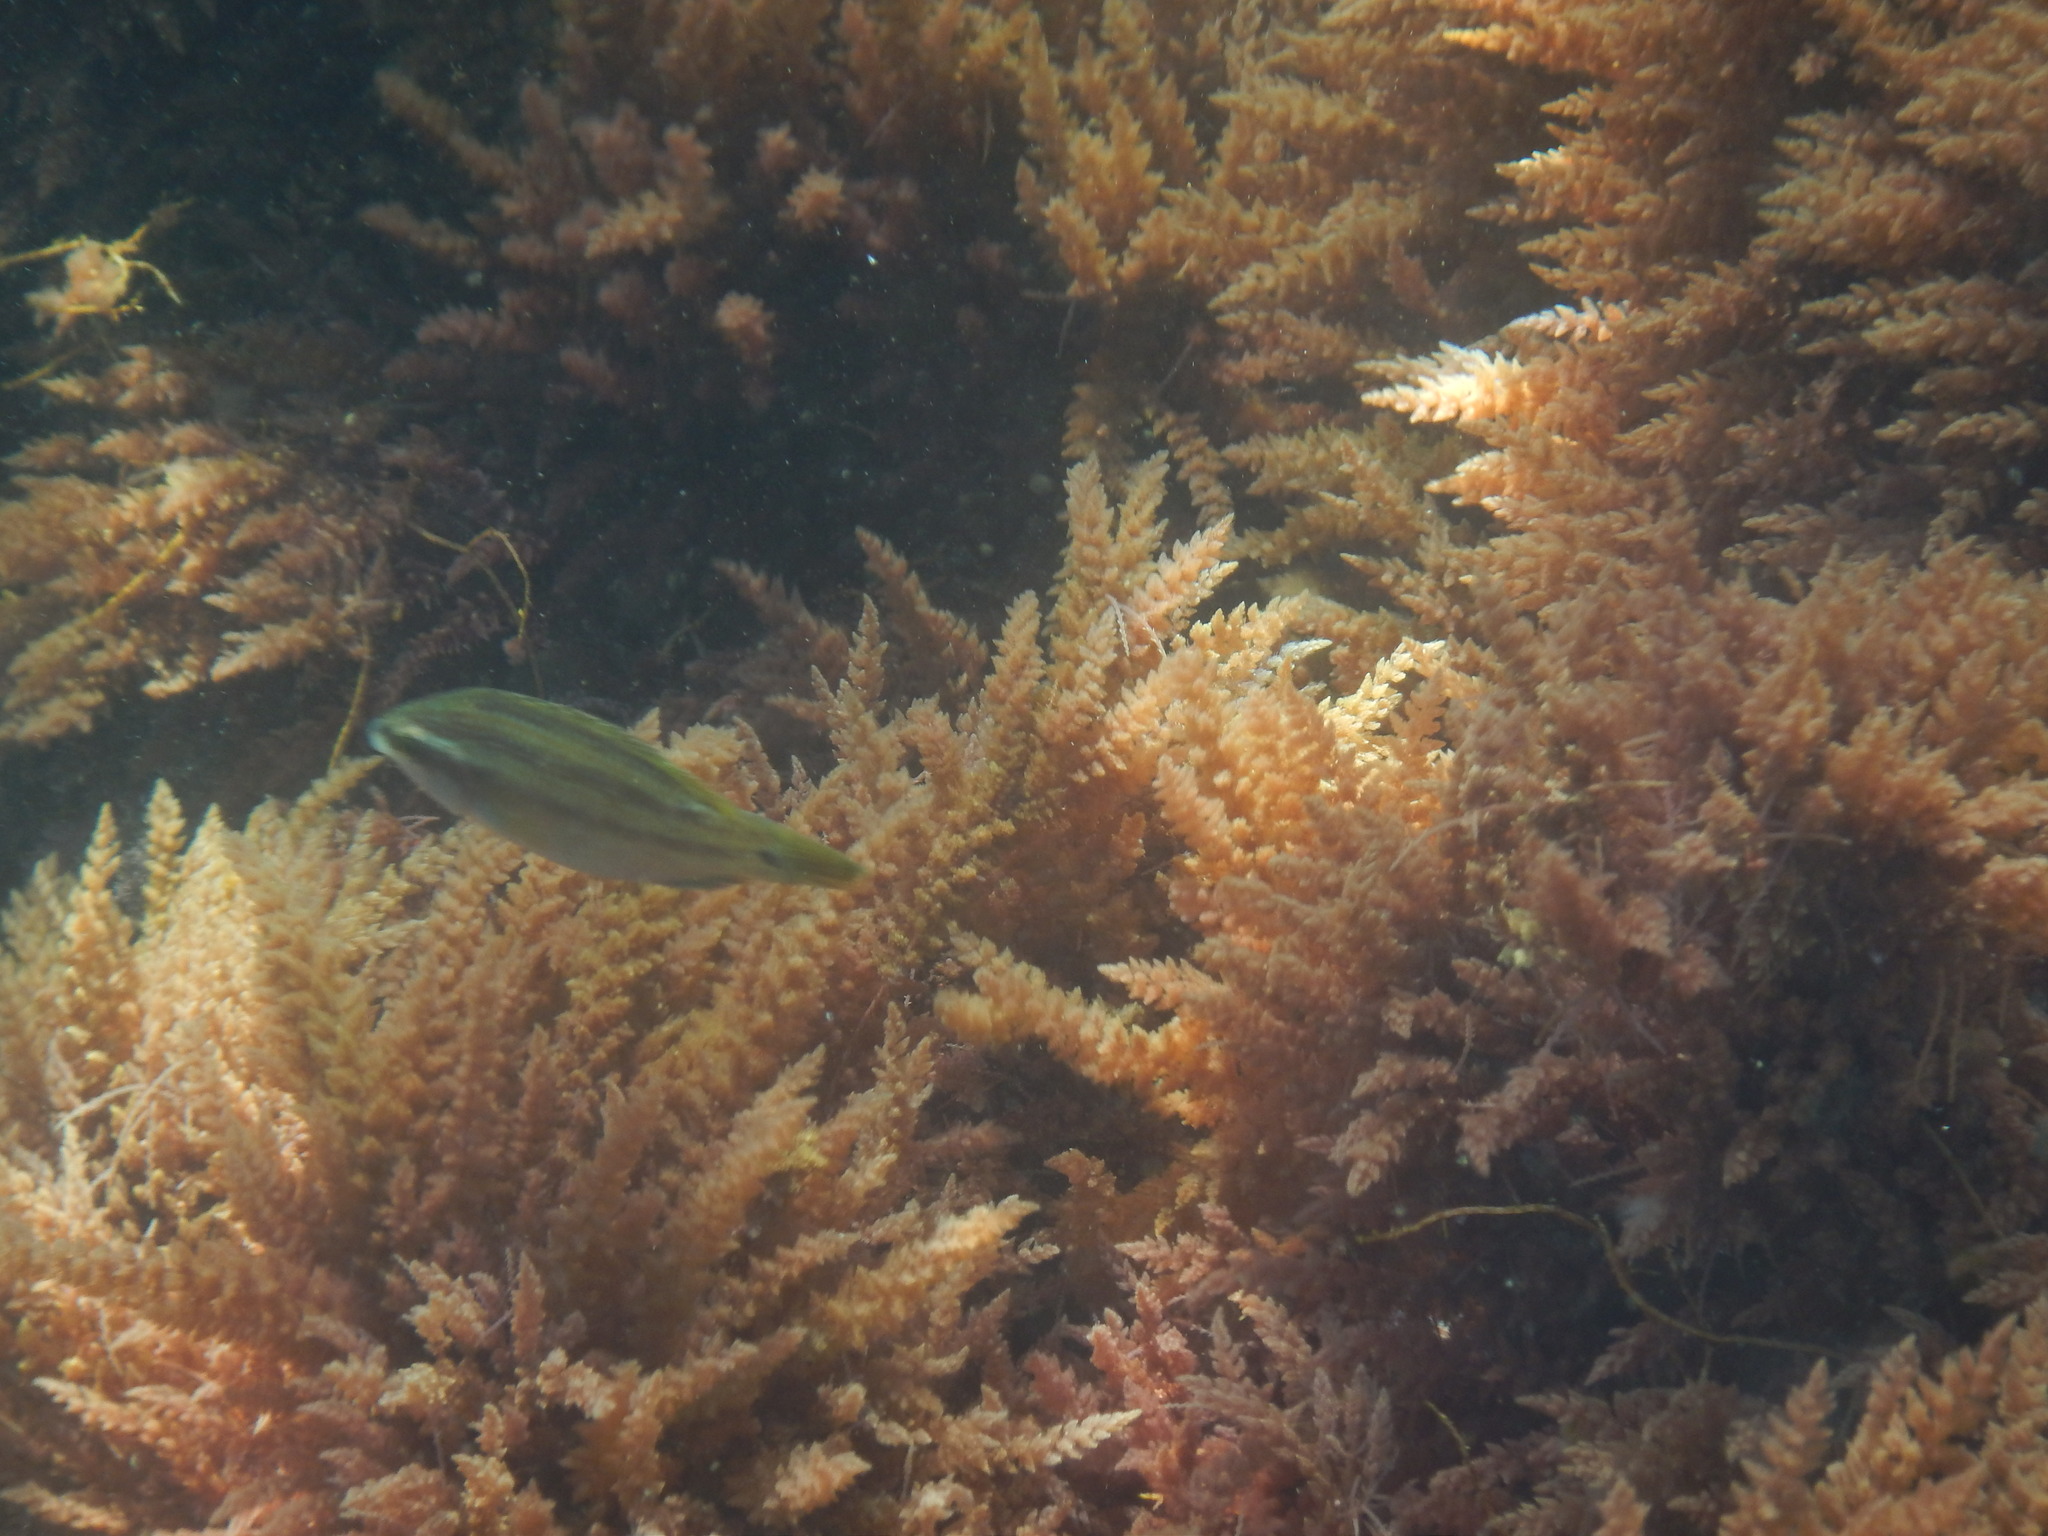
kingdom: Animalia
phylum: Chordata
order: Perciformes
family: Labridae
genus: Symphodus
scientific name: Symphodus tinca
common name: Peacock wrasse
